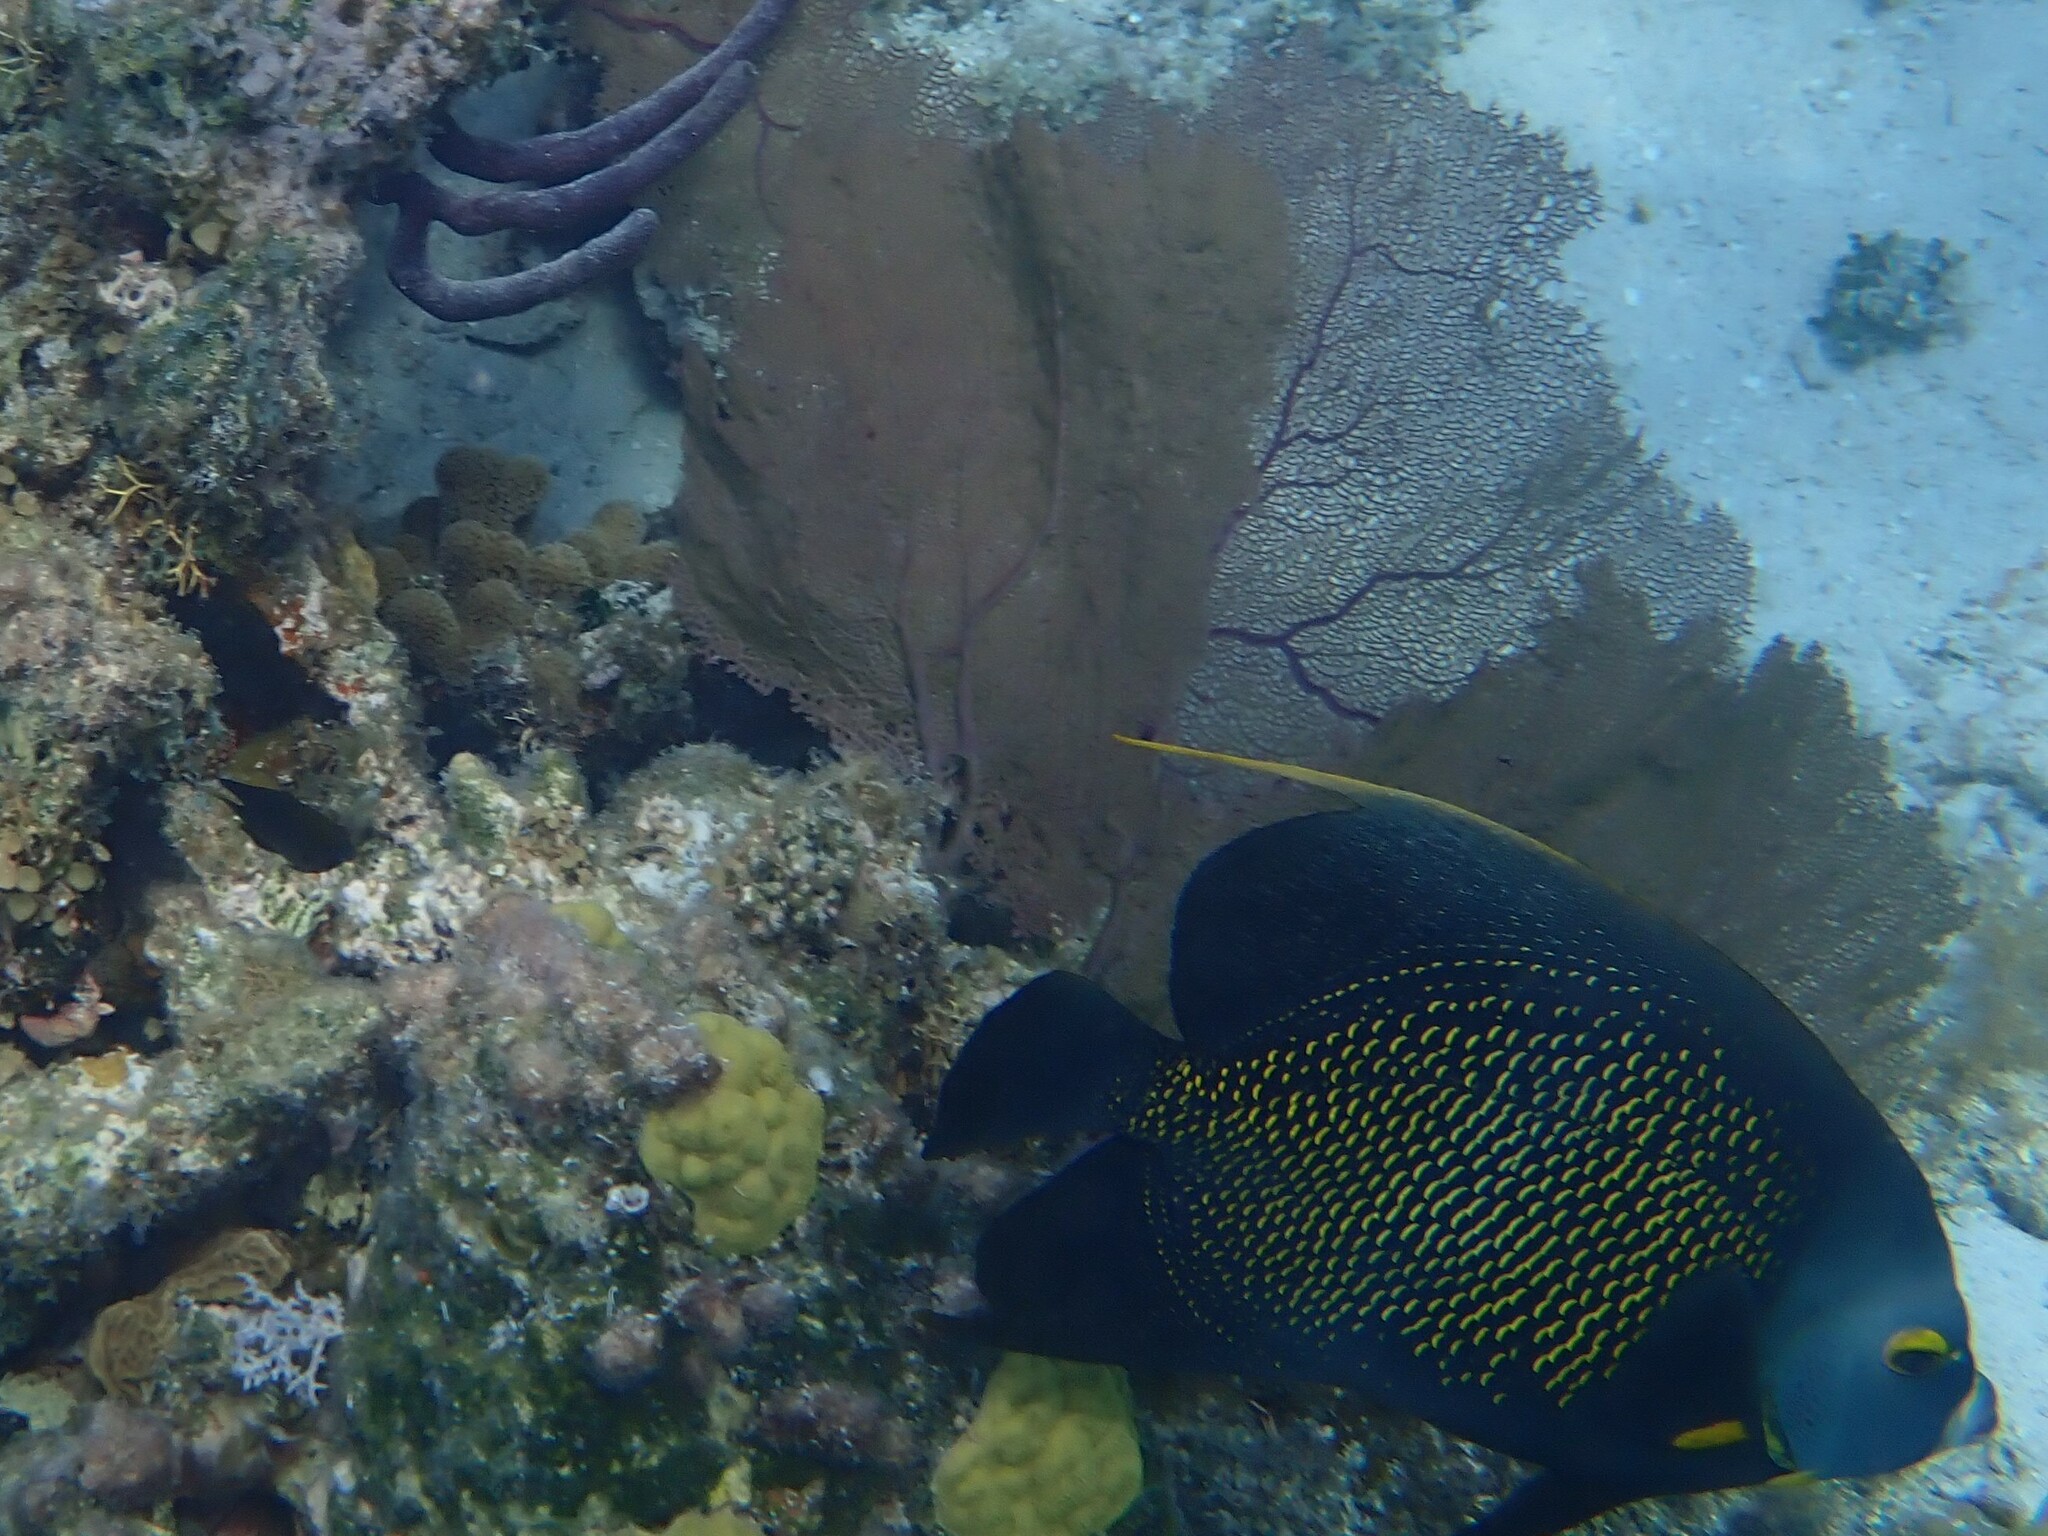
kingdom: Animalia
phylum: Chordata
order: Perciformes
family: Pomacanthidae
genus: Pomacanthus
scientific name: Pomacanthus paru
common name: French angelfish
